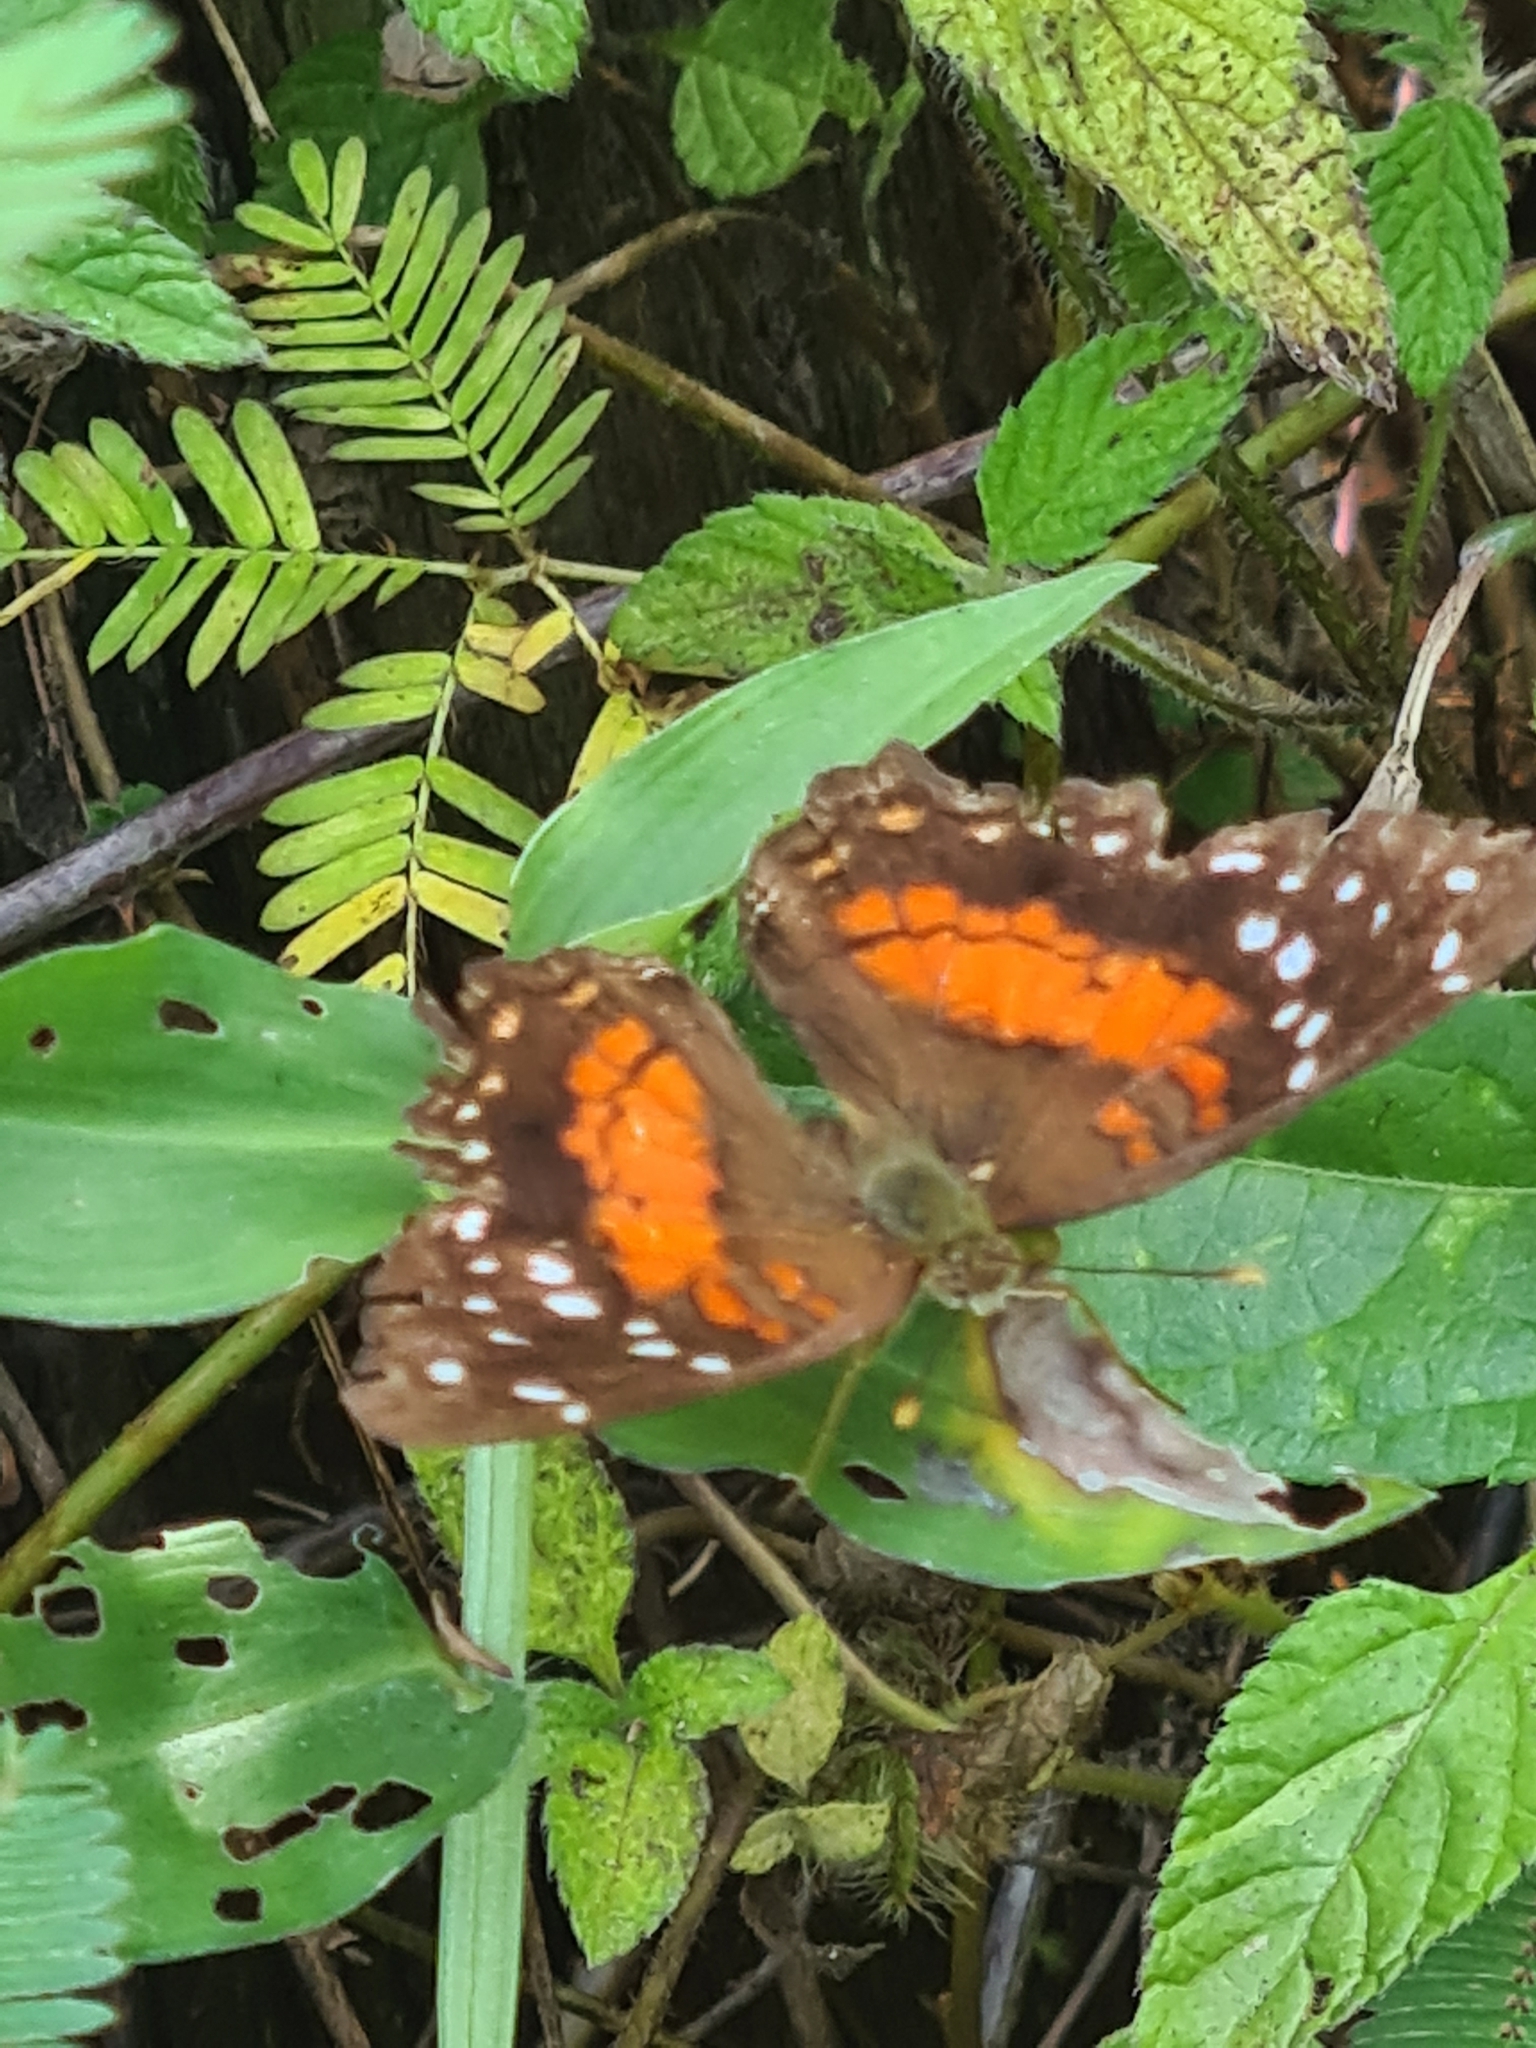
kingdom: Animalia
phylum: Arthropoda
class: Insecta
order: Lepidoptera
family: Nymphalidae
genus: Anartia
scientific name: Anartia amathea
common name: Red peacock
